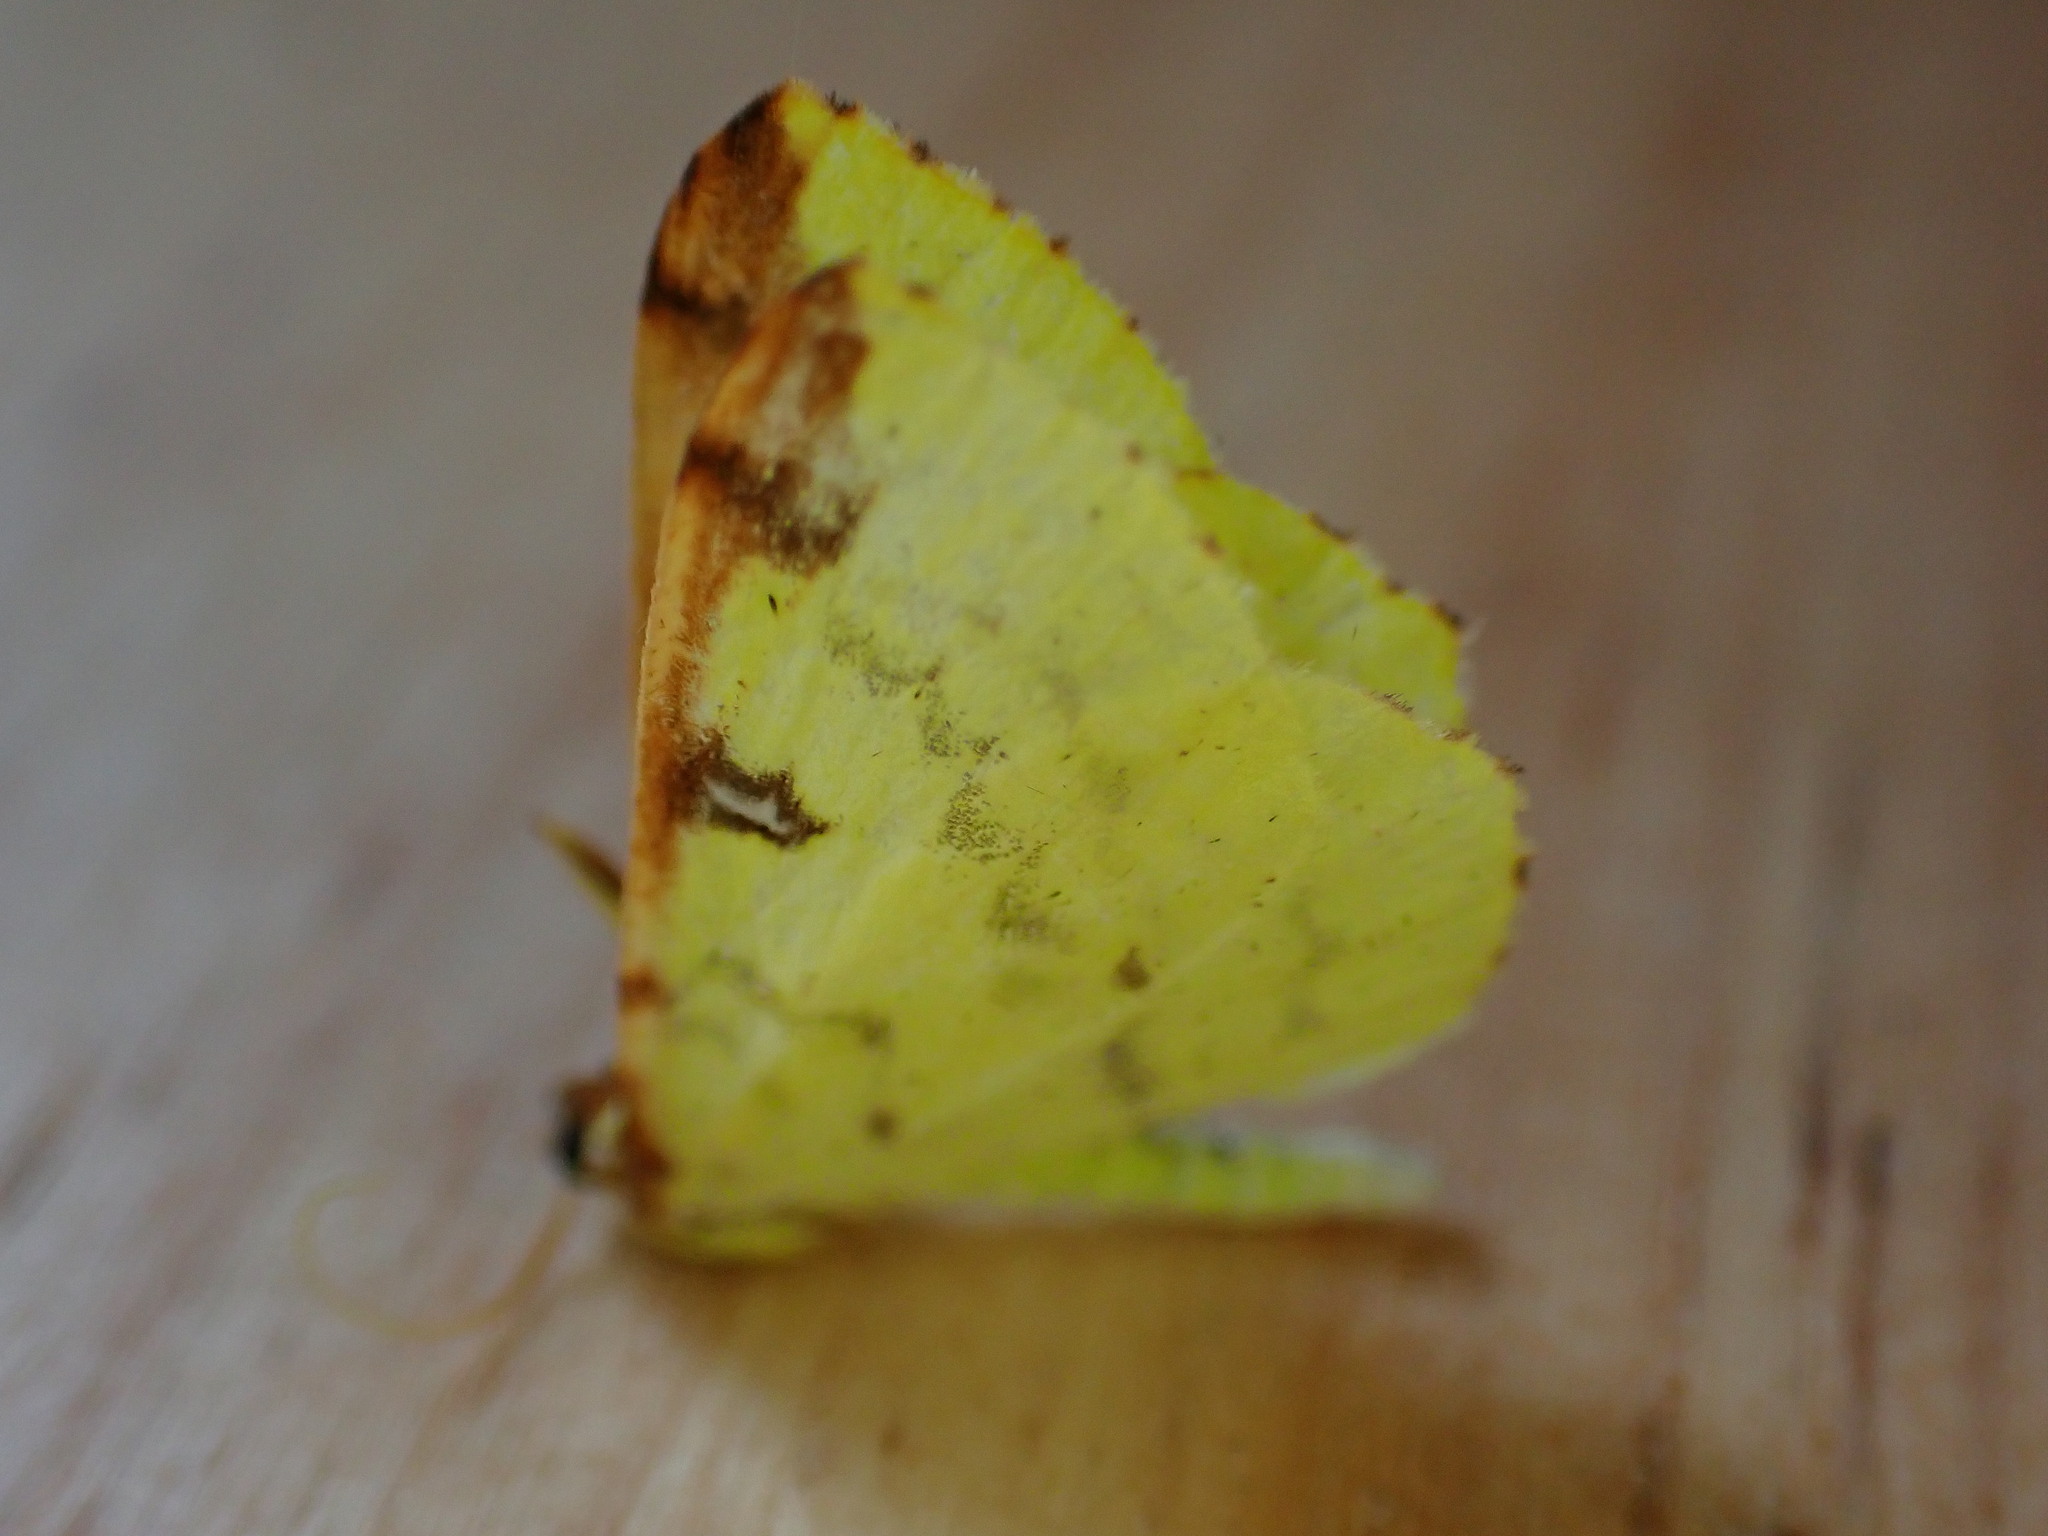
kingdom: Animalia
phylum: Arthropoda
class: Insecta
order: Lepidoptera
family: Geometridae
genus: Opisthograptis
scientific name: Opisthograptis luteolata
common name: Brimstone moth
